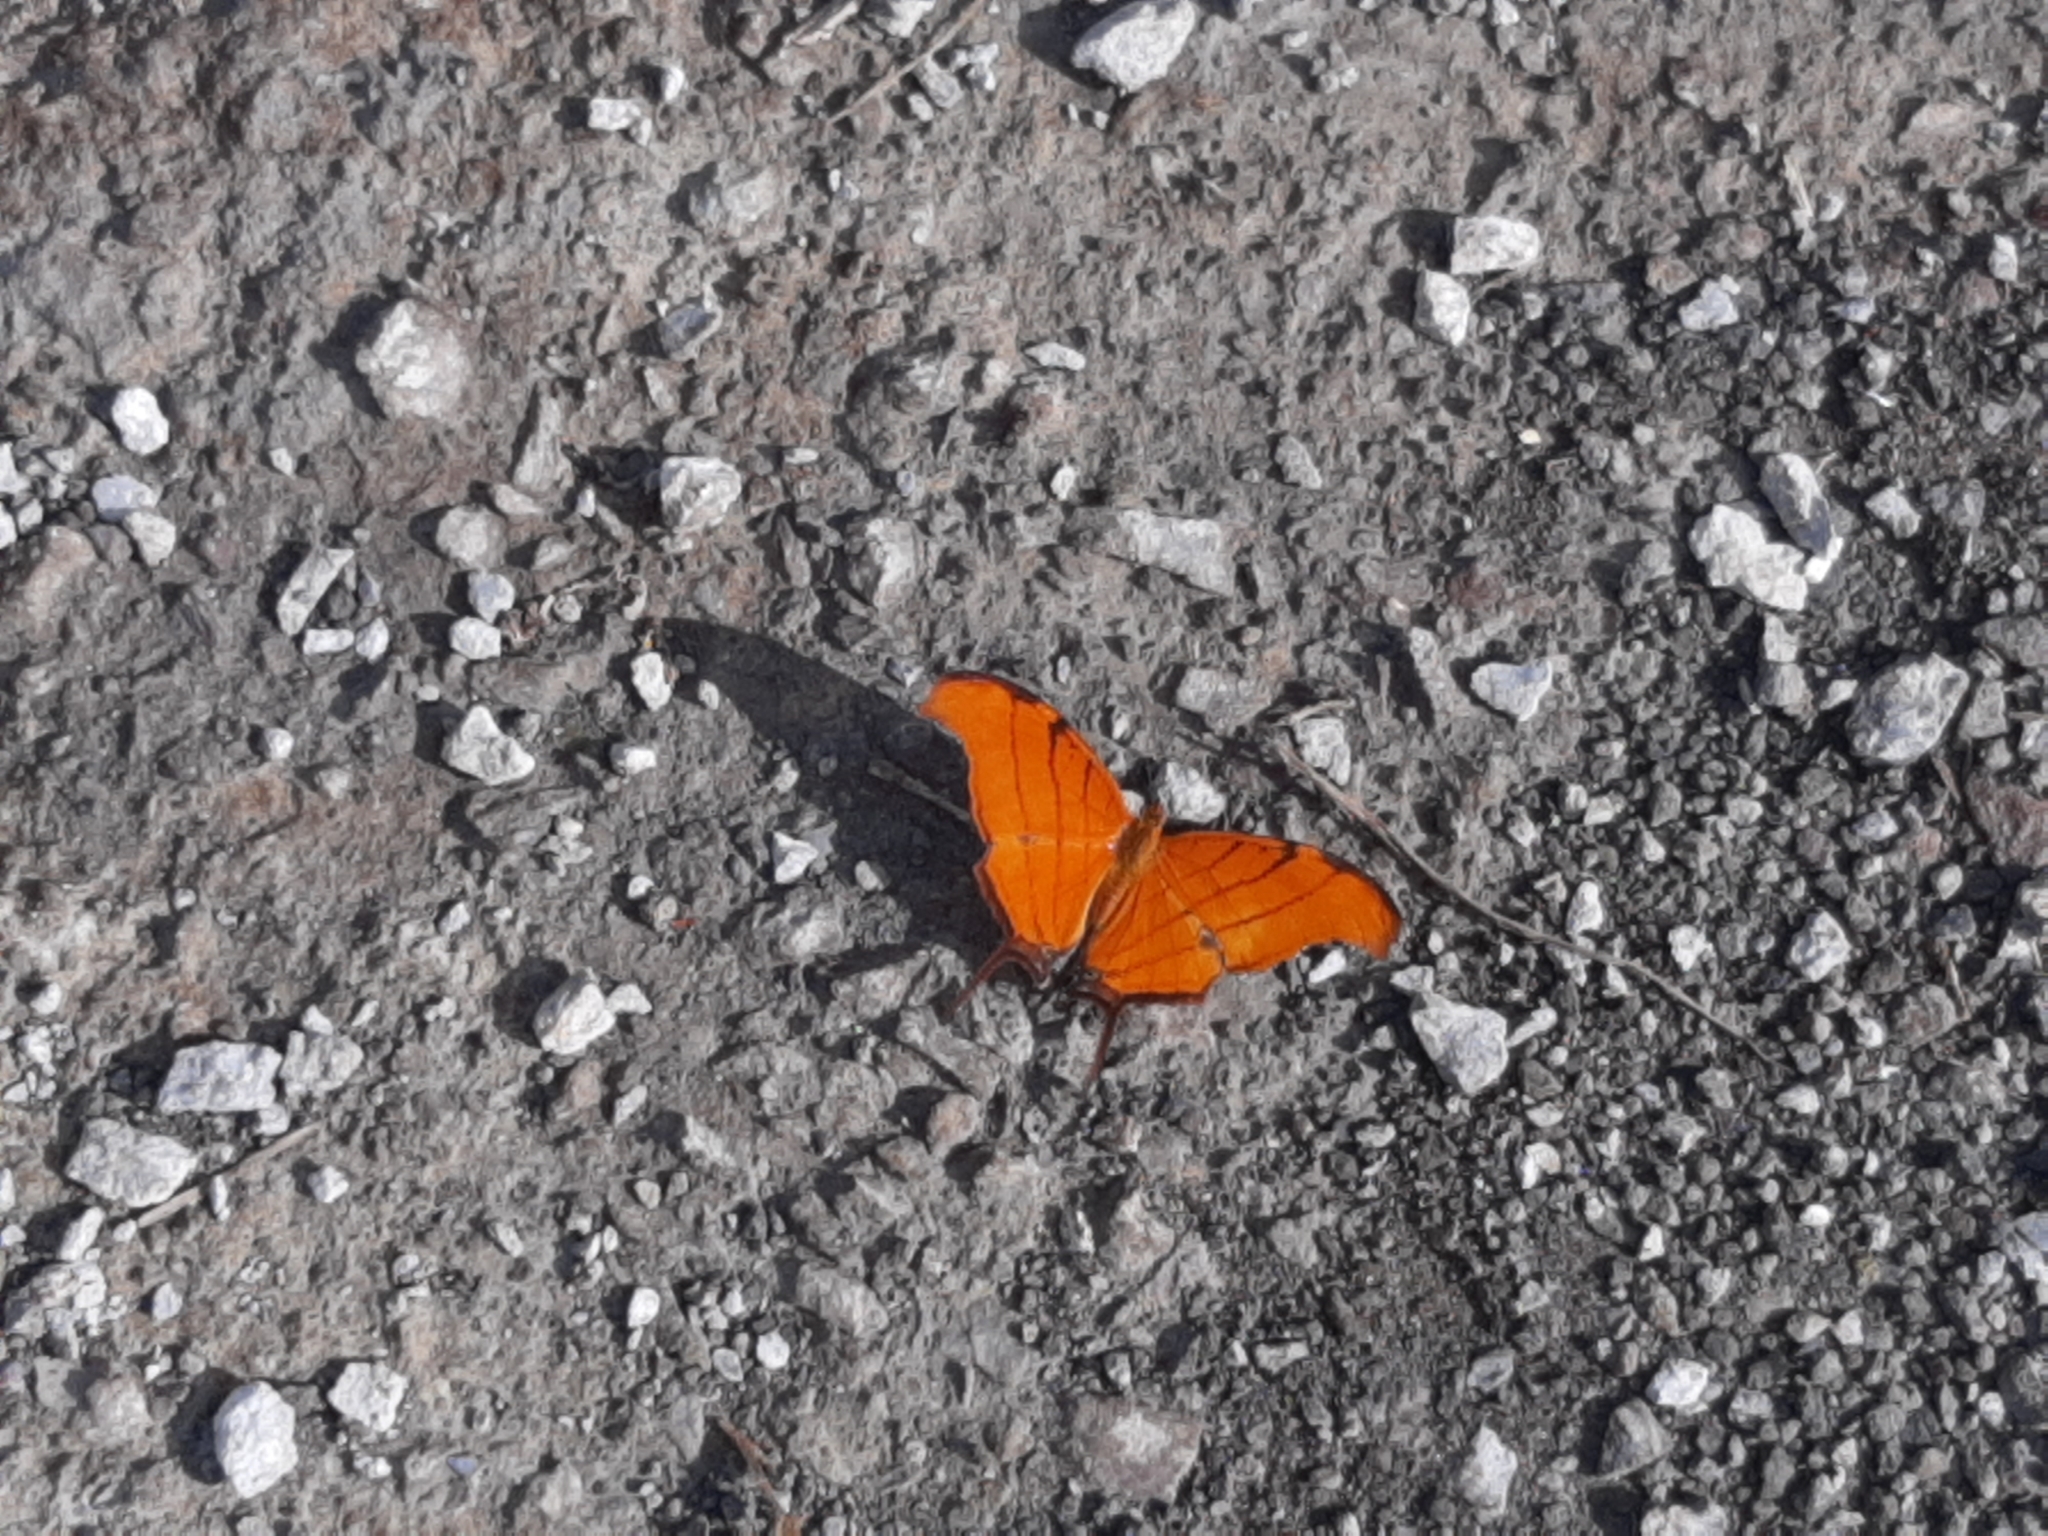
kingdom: Animalia
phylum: Arthropoda
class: Insecta
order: Lepidoptera
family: Nymphalidae
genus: Marpesia
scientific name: Marpesia petreus
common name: Red dagger wing
